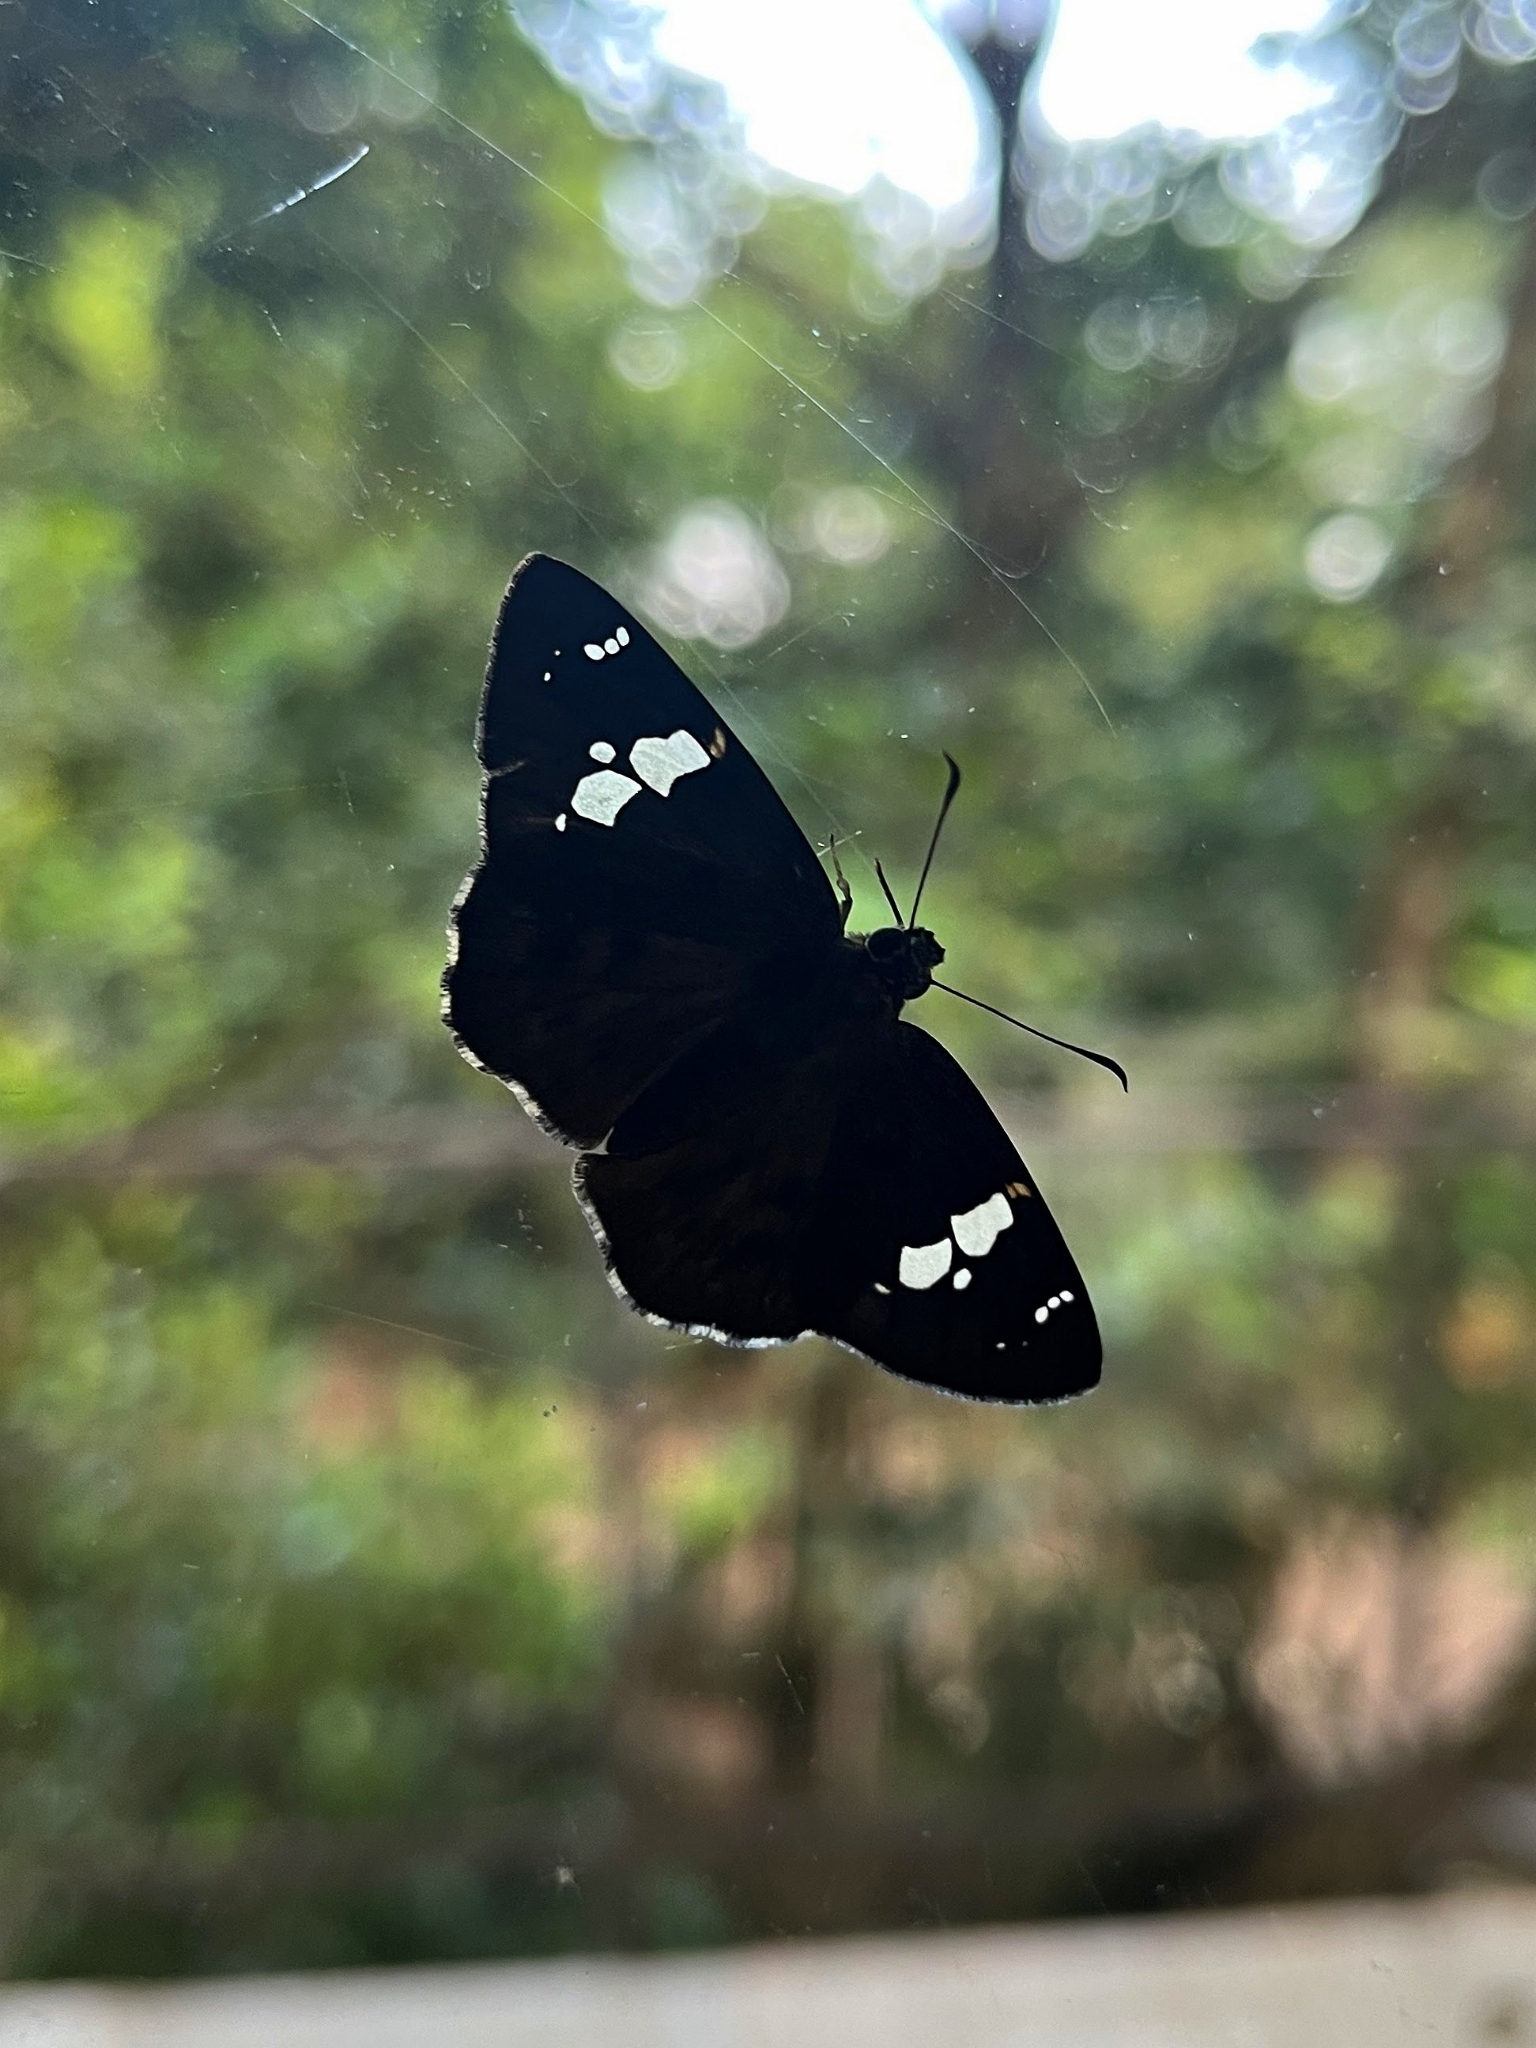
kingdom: Animalia
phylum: Arthropoda
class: Insecta
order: Lepidoptera
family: Hesperiidae
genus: Celaenorrhinus
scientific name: Celaenorrhinus leucocera
